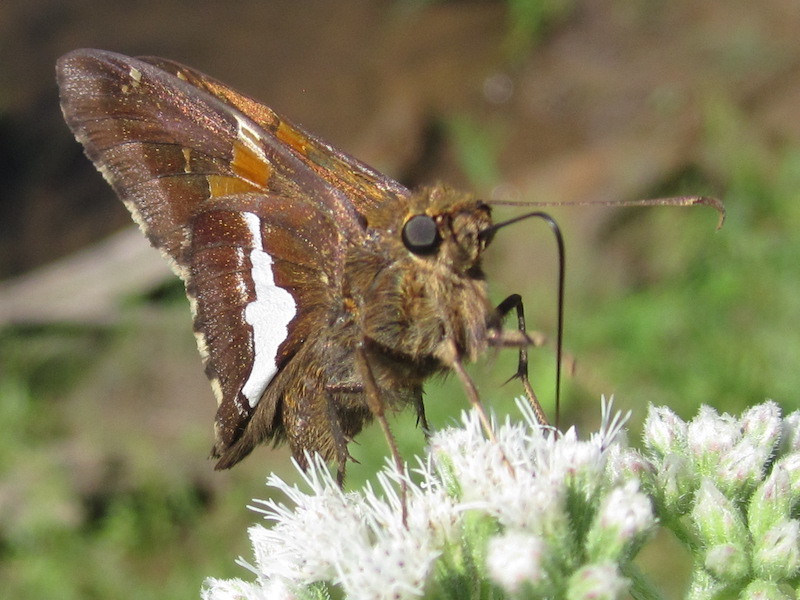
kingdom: Animalia
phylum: Arthropoda
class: Insecta
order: Lepidoptera
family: Hesperiidae
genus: Epargyreus
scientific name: Epargyreus clarus
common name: Silver-spotted skipper
